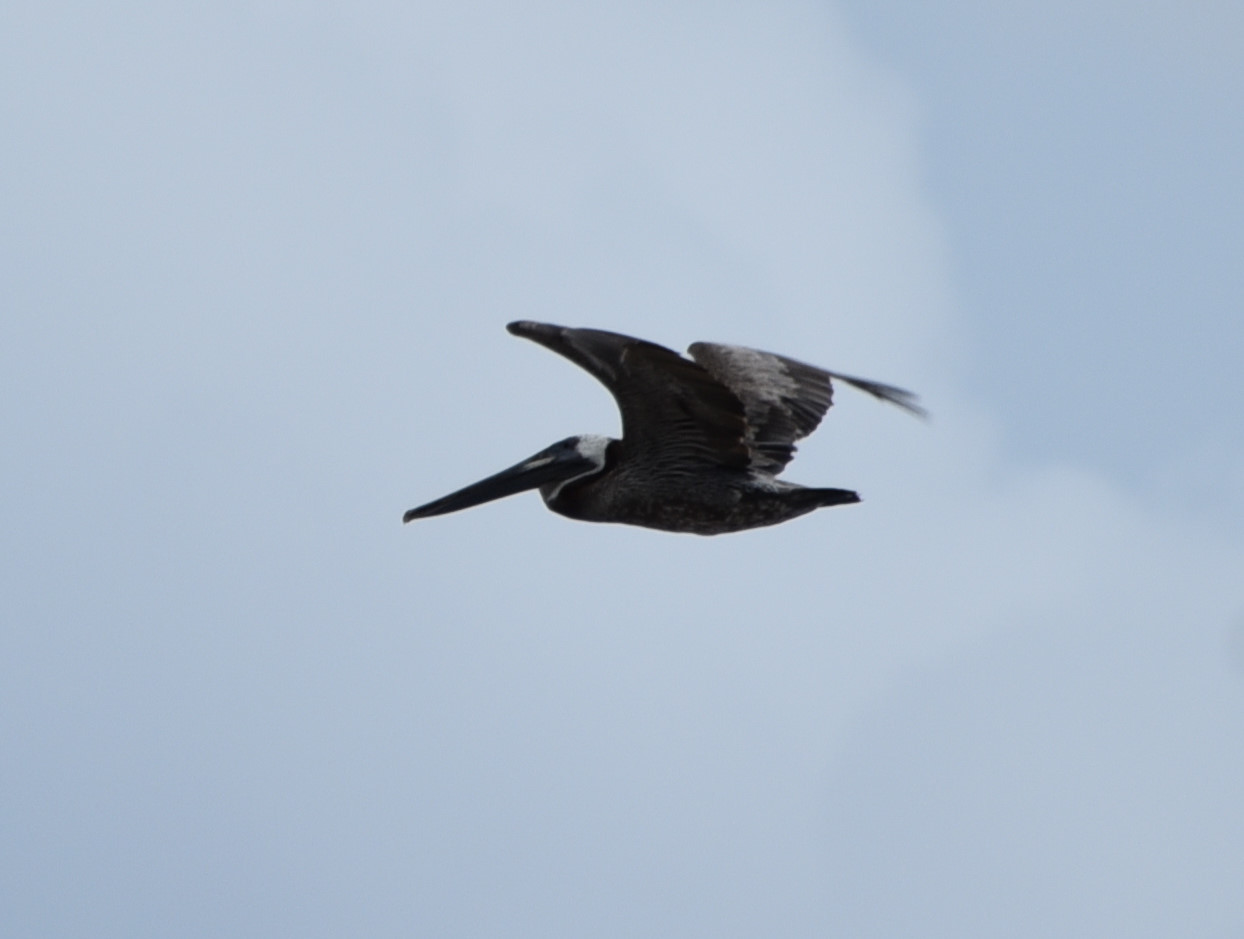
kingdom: Animalia
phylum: Chordata
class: Aves
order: Pelecaniformes
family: Pelecanidae
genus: Pelecanus
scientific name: Pelecanus occidentalis
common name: Brown pelican
